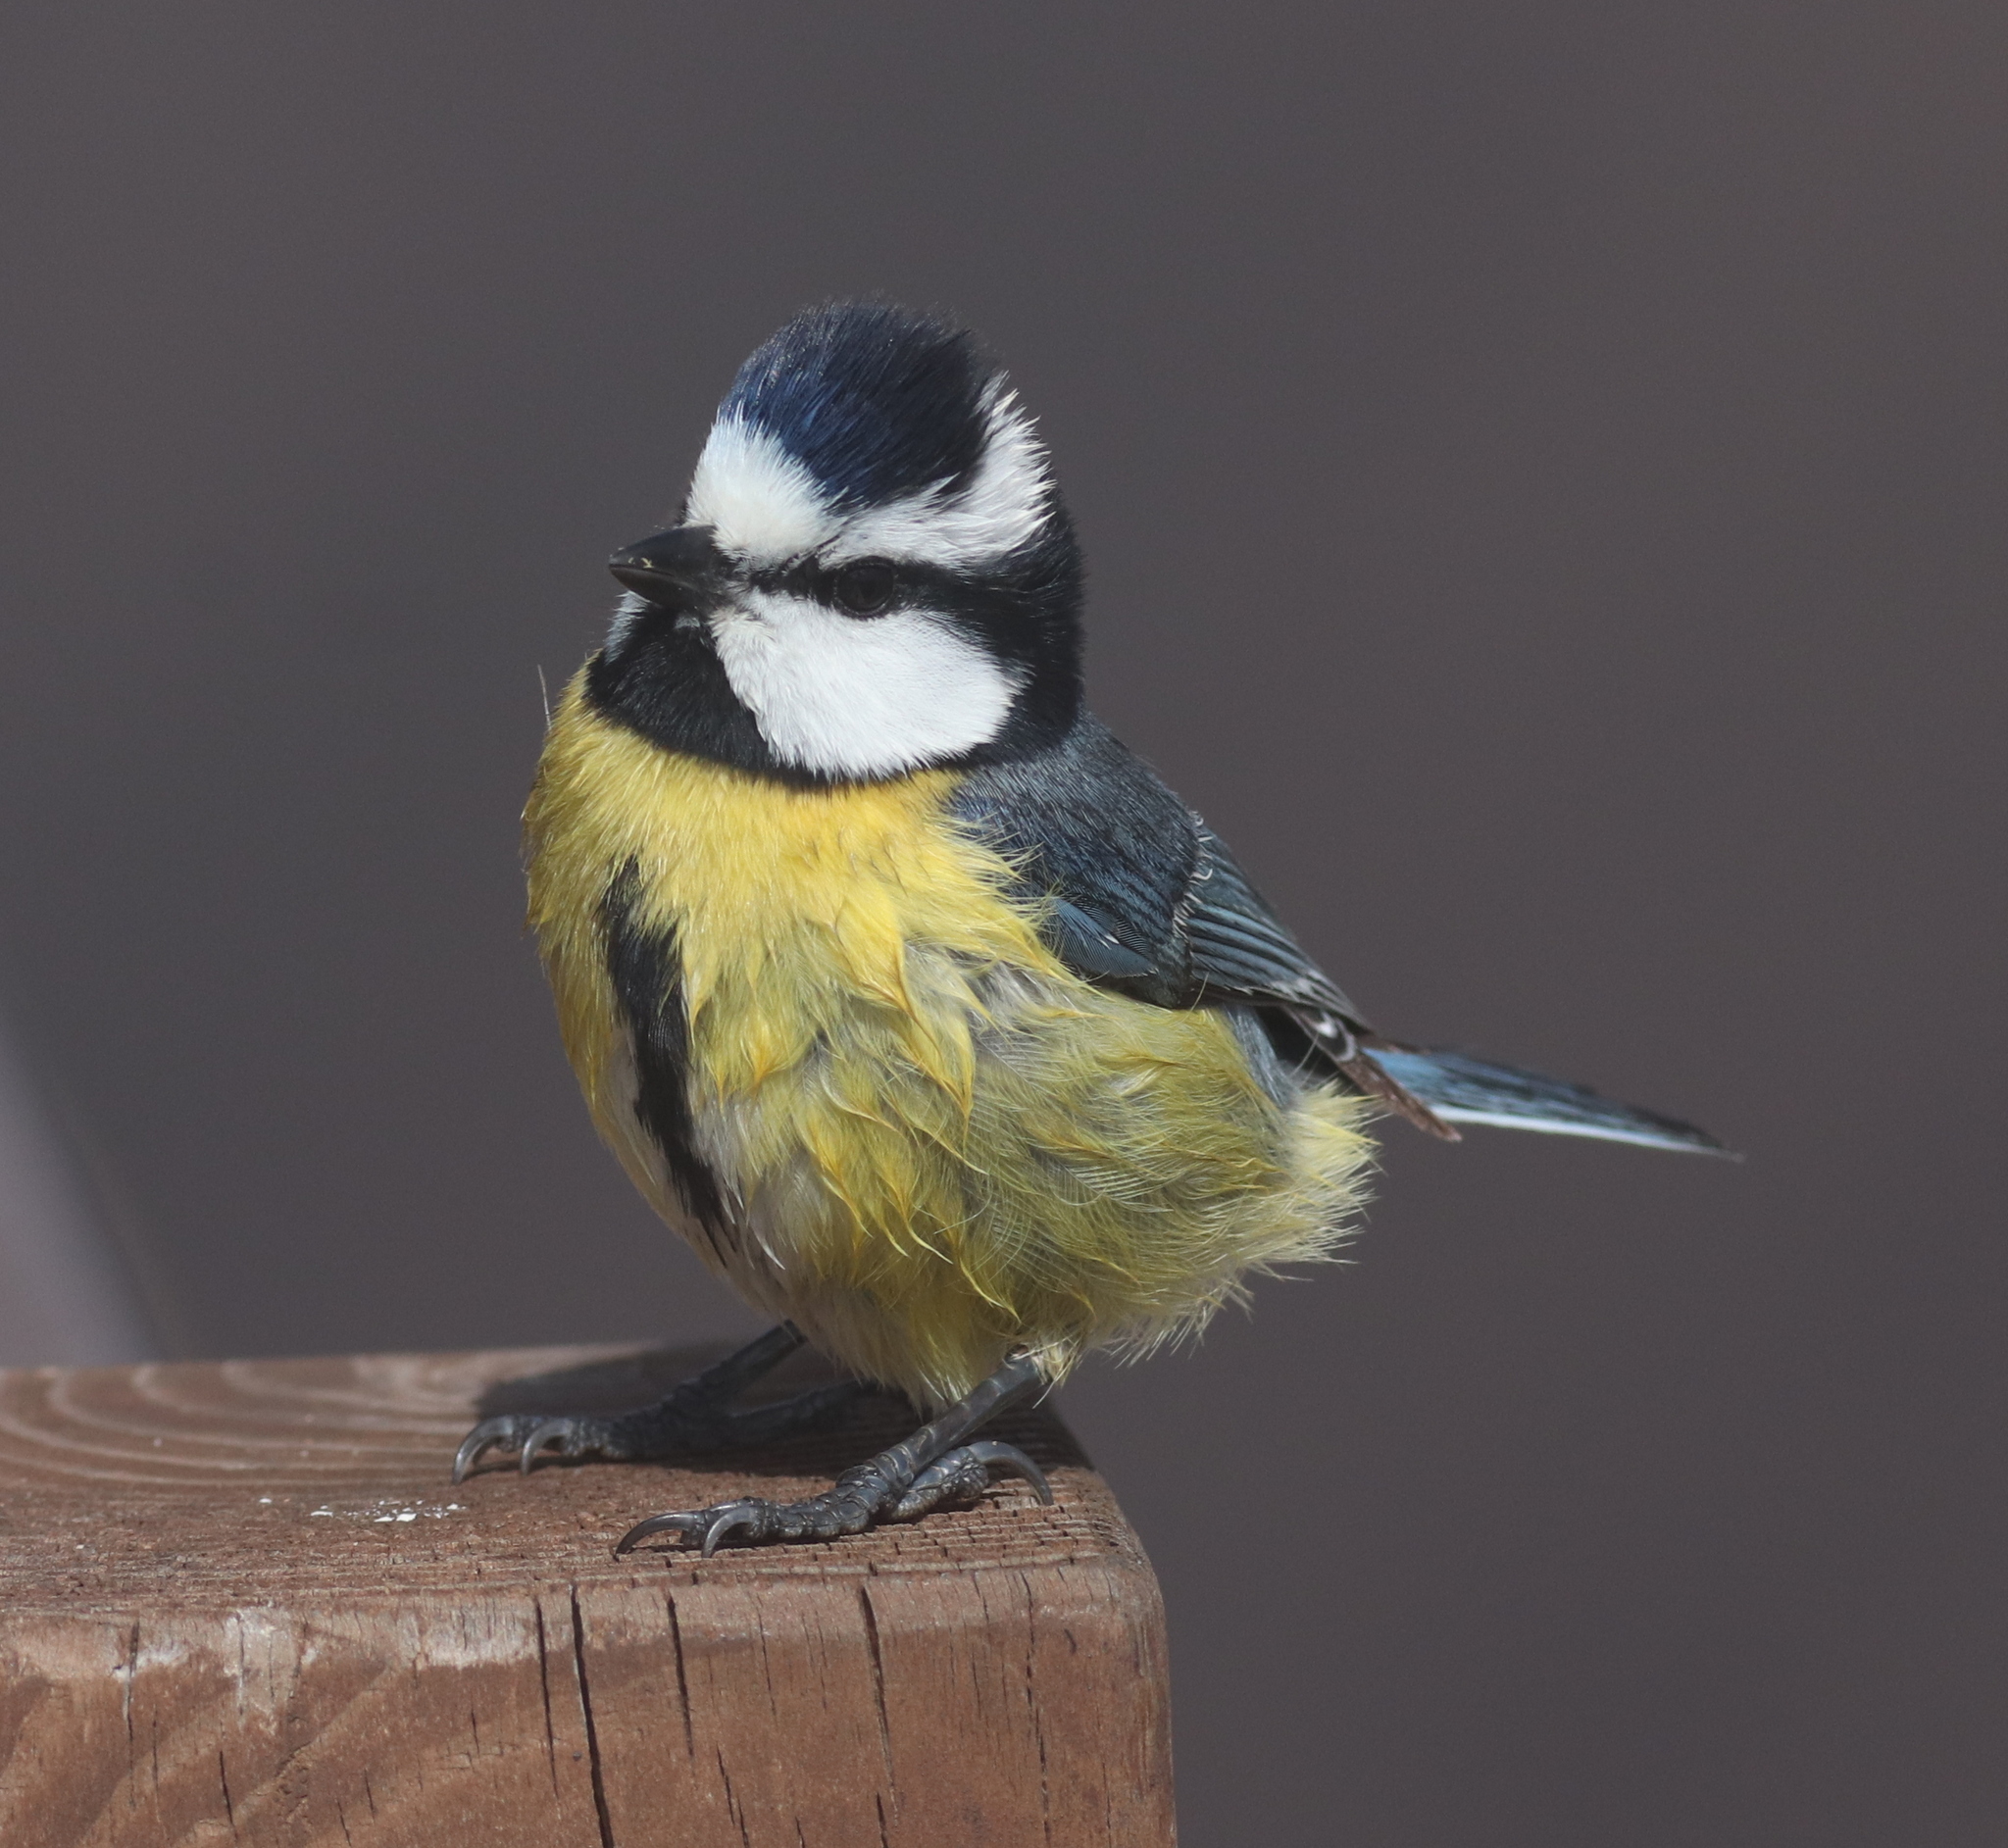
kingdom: Animalia
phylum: Chordata
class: Aves
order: Passeriformes
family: Paridae
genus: Cyanistes
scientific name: Cyanistes teneriffae
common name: African blue tit
